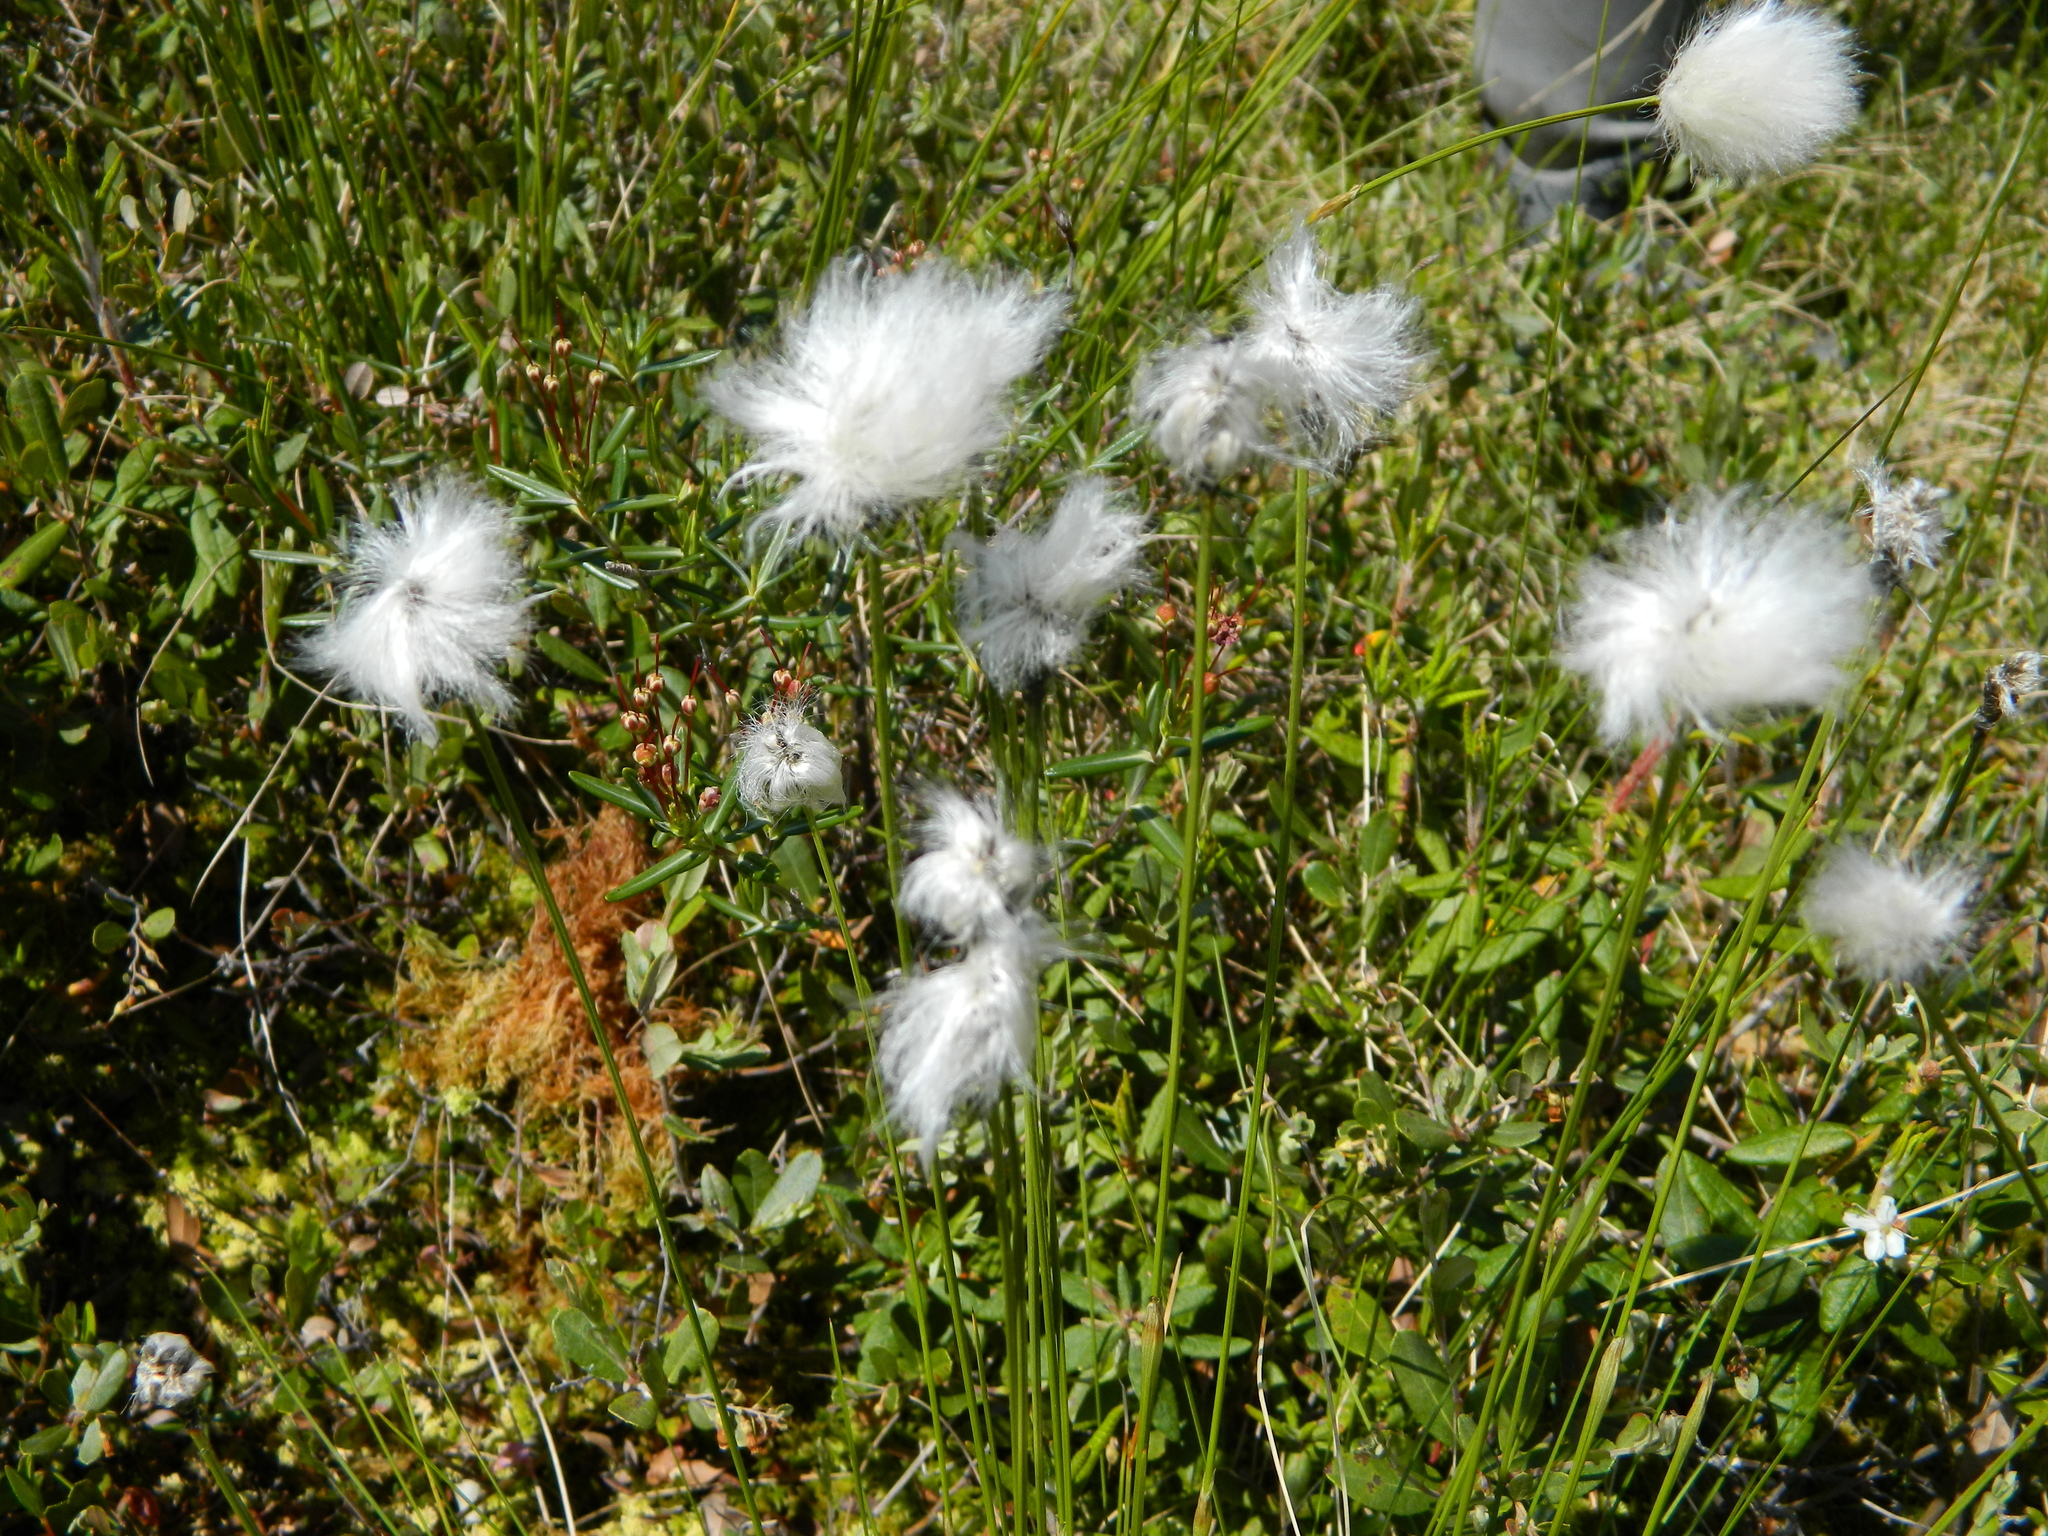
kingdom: Plantae
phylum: Tracheophyta
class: Liliopsida
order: Poales
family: Cyperaceae
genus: Eriophorum
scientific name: Eriophorum vaginatum
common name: Hare's-tail cottongrass
